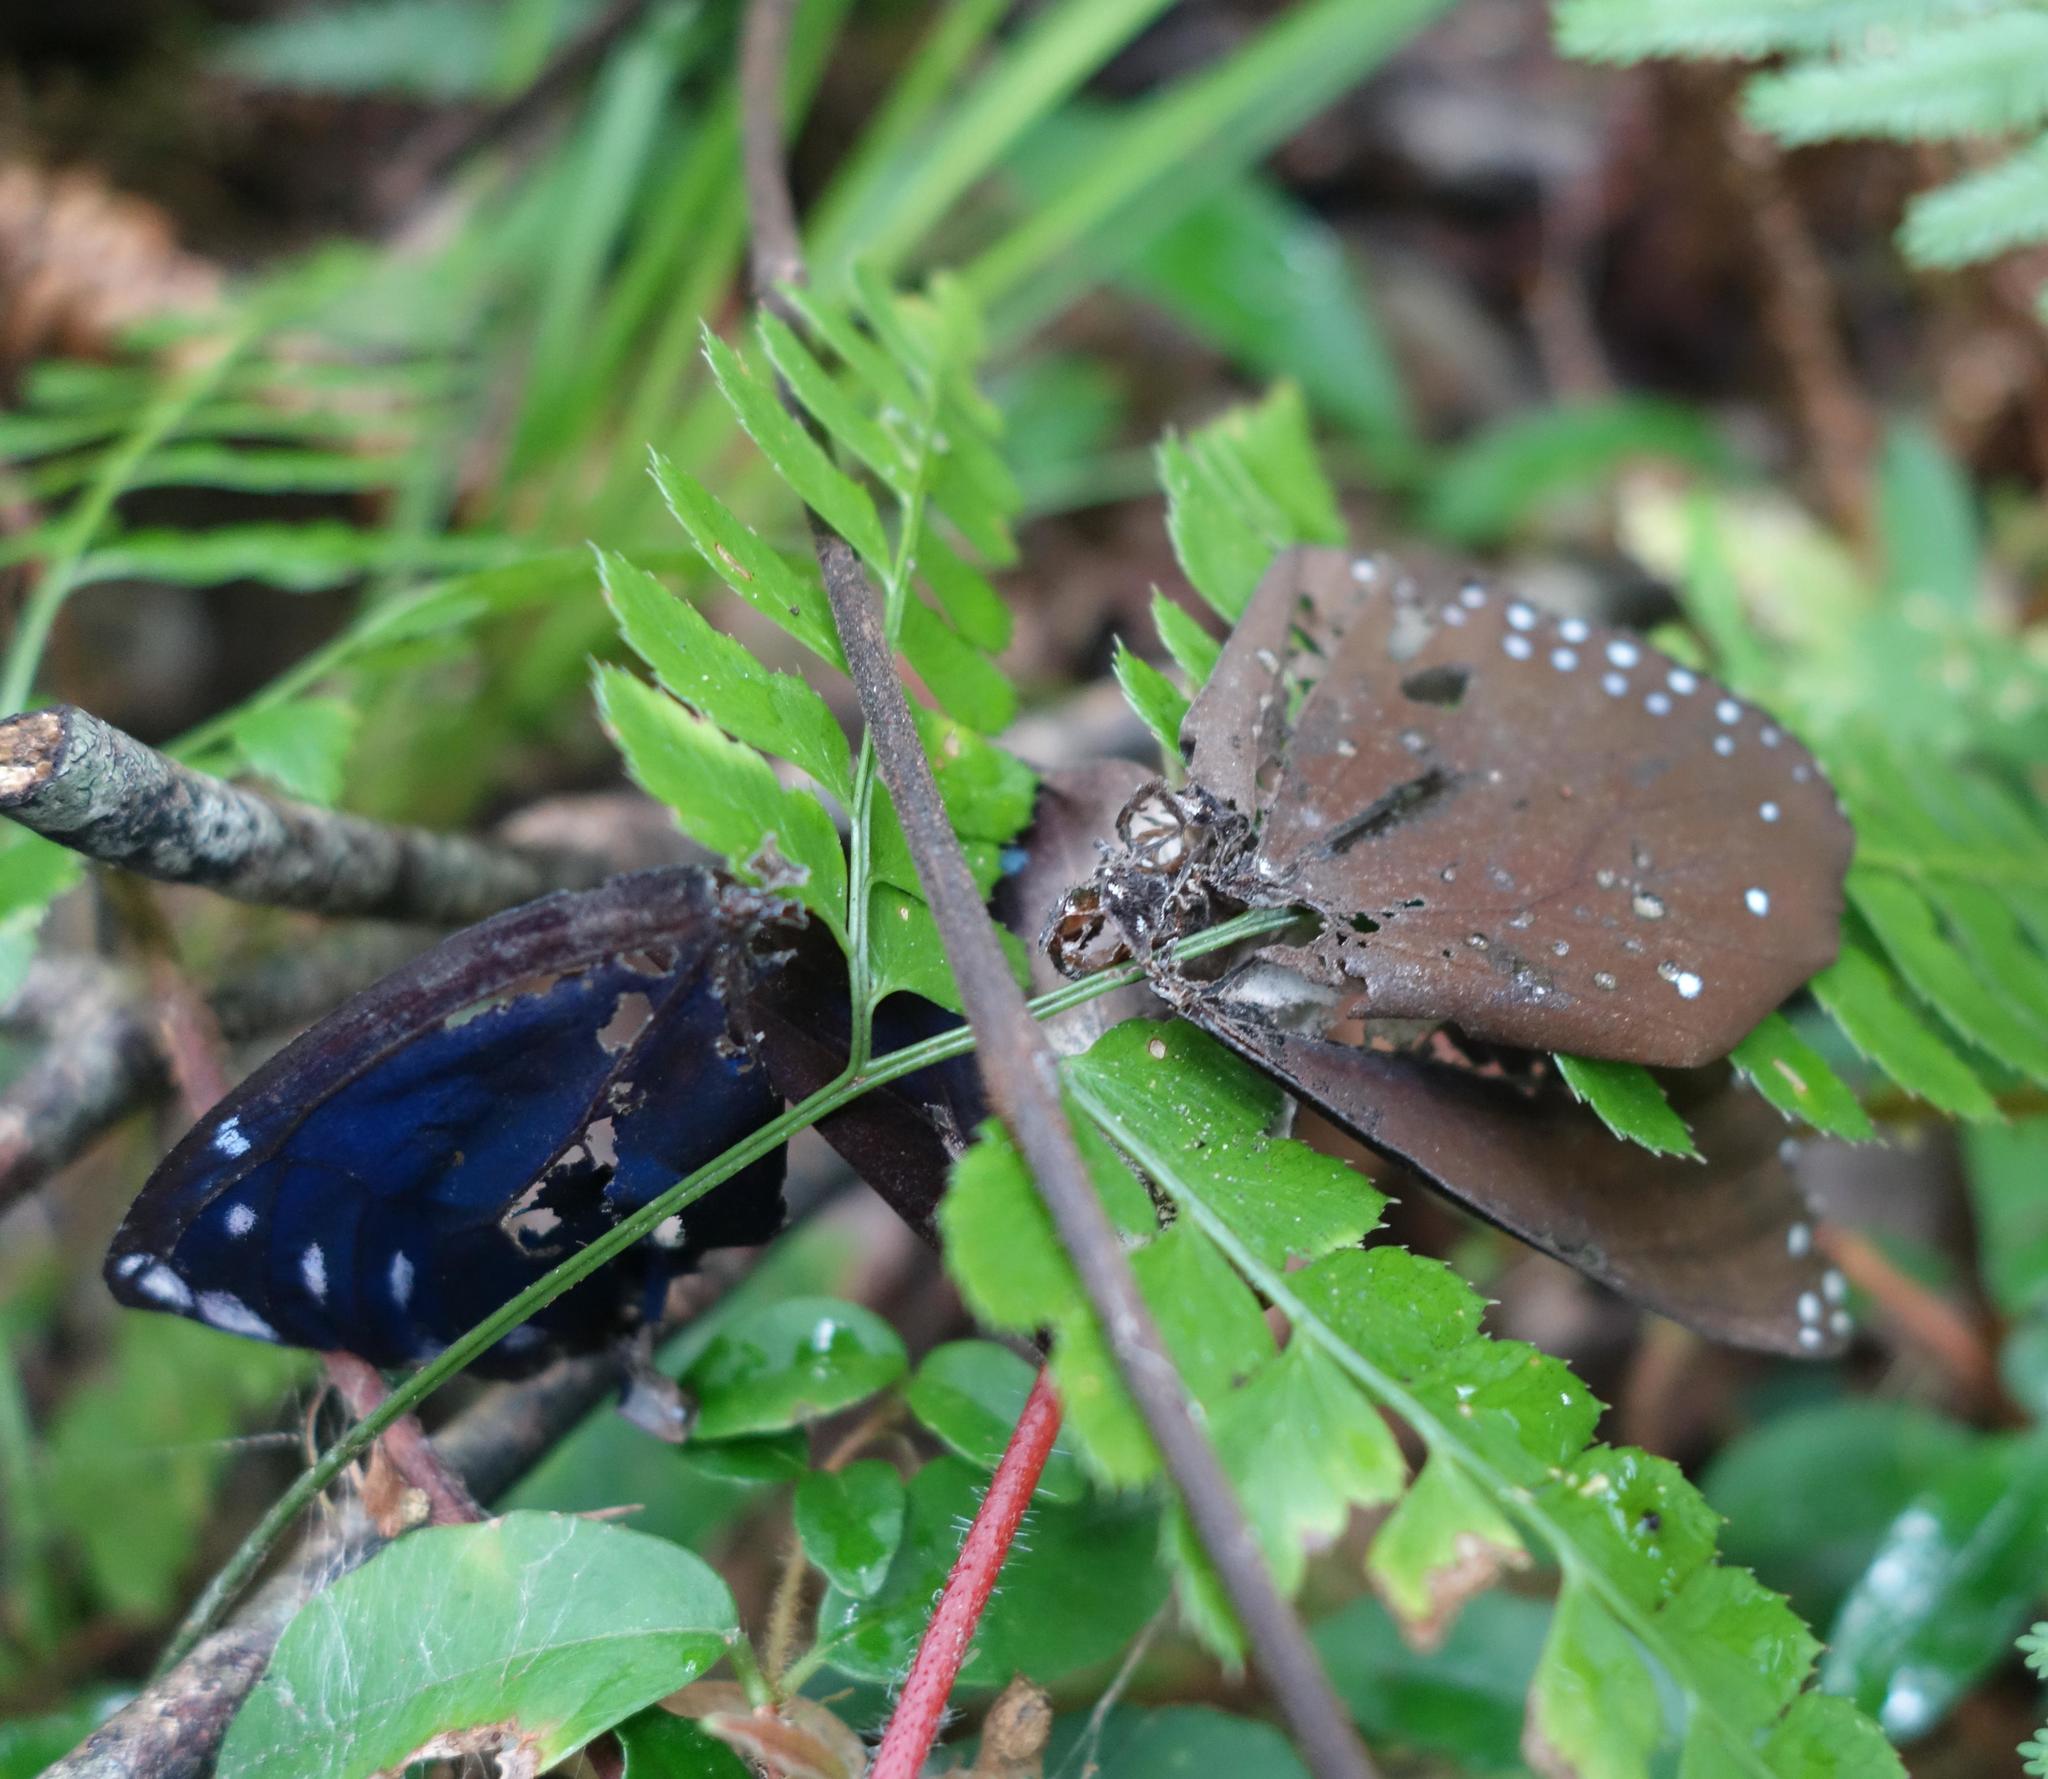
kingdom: Animalia
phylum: Arthropoda
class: Insecta
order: Lepidoptera
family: Nymphalidae
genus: Euploea
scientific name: Euploea eunice
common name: Blue-banded king crow butterfly
